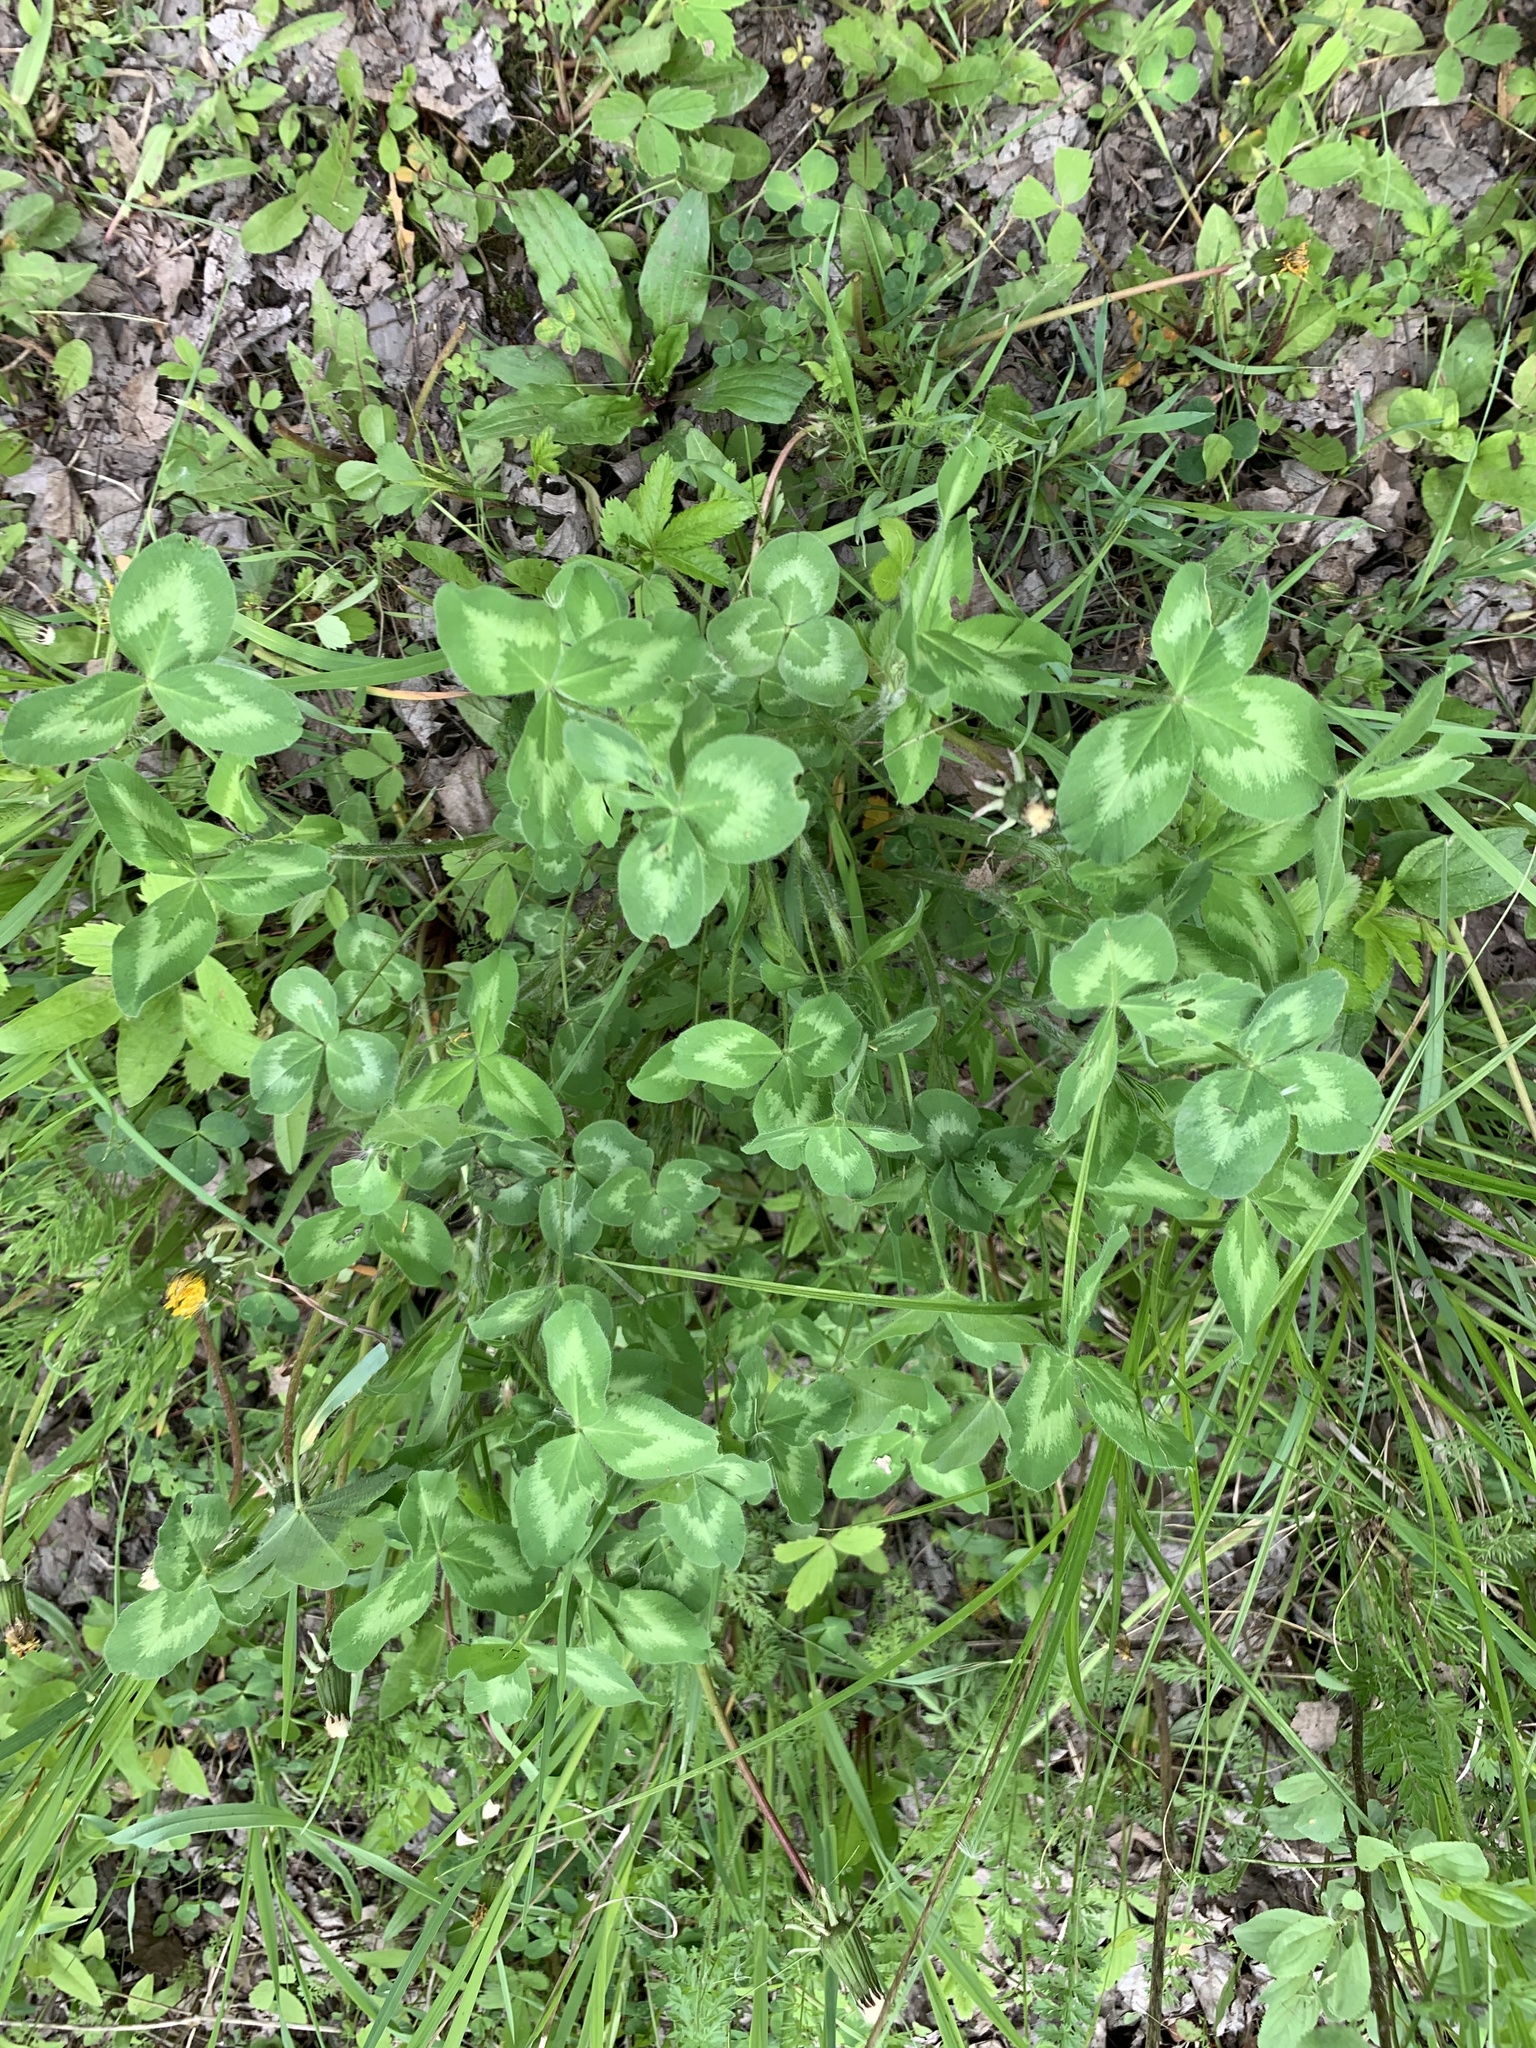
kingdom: Plantae
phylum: Tracheophyta
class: Magnoliopsida
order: Fabales
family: Fabaceae
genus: Trifolium
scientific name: Trifolium pratense
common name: Red clover
